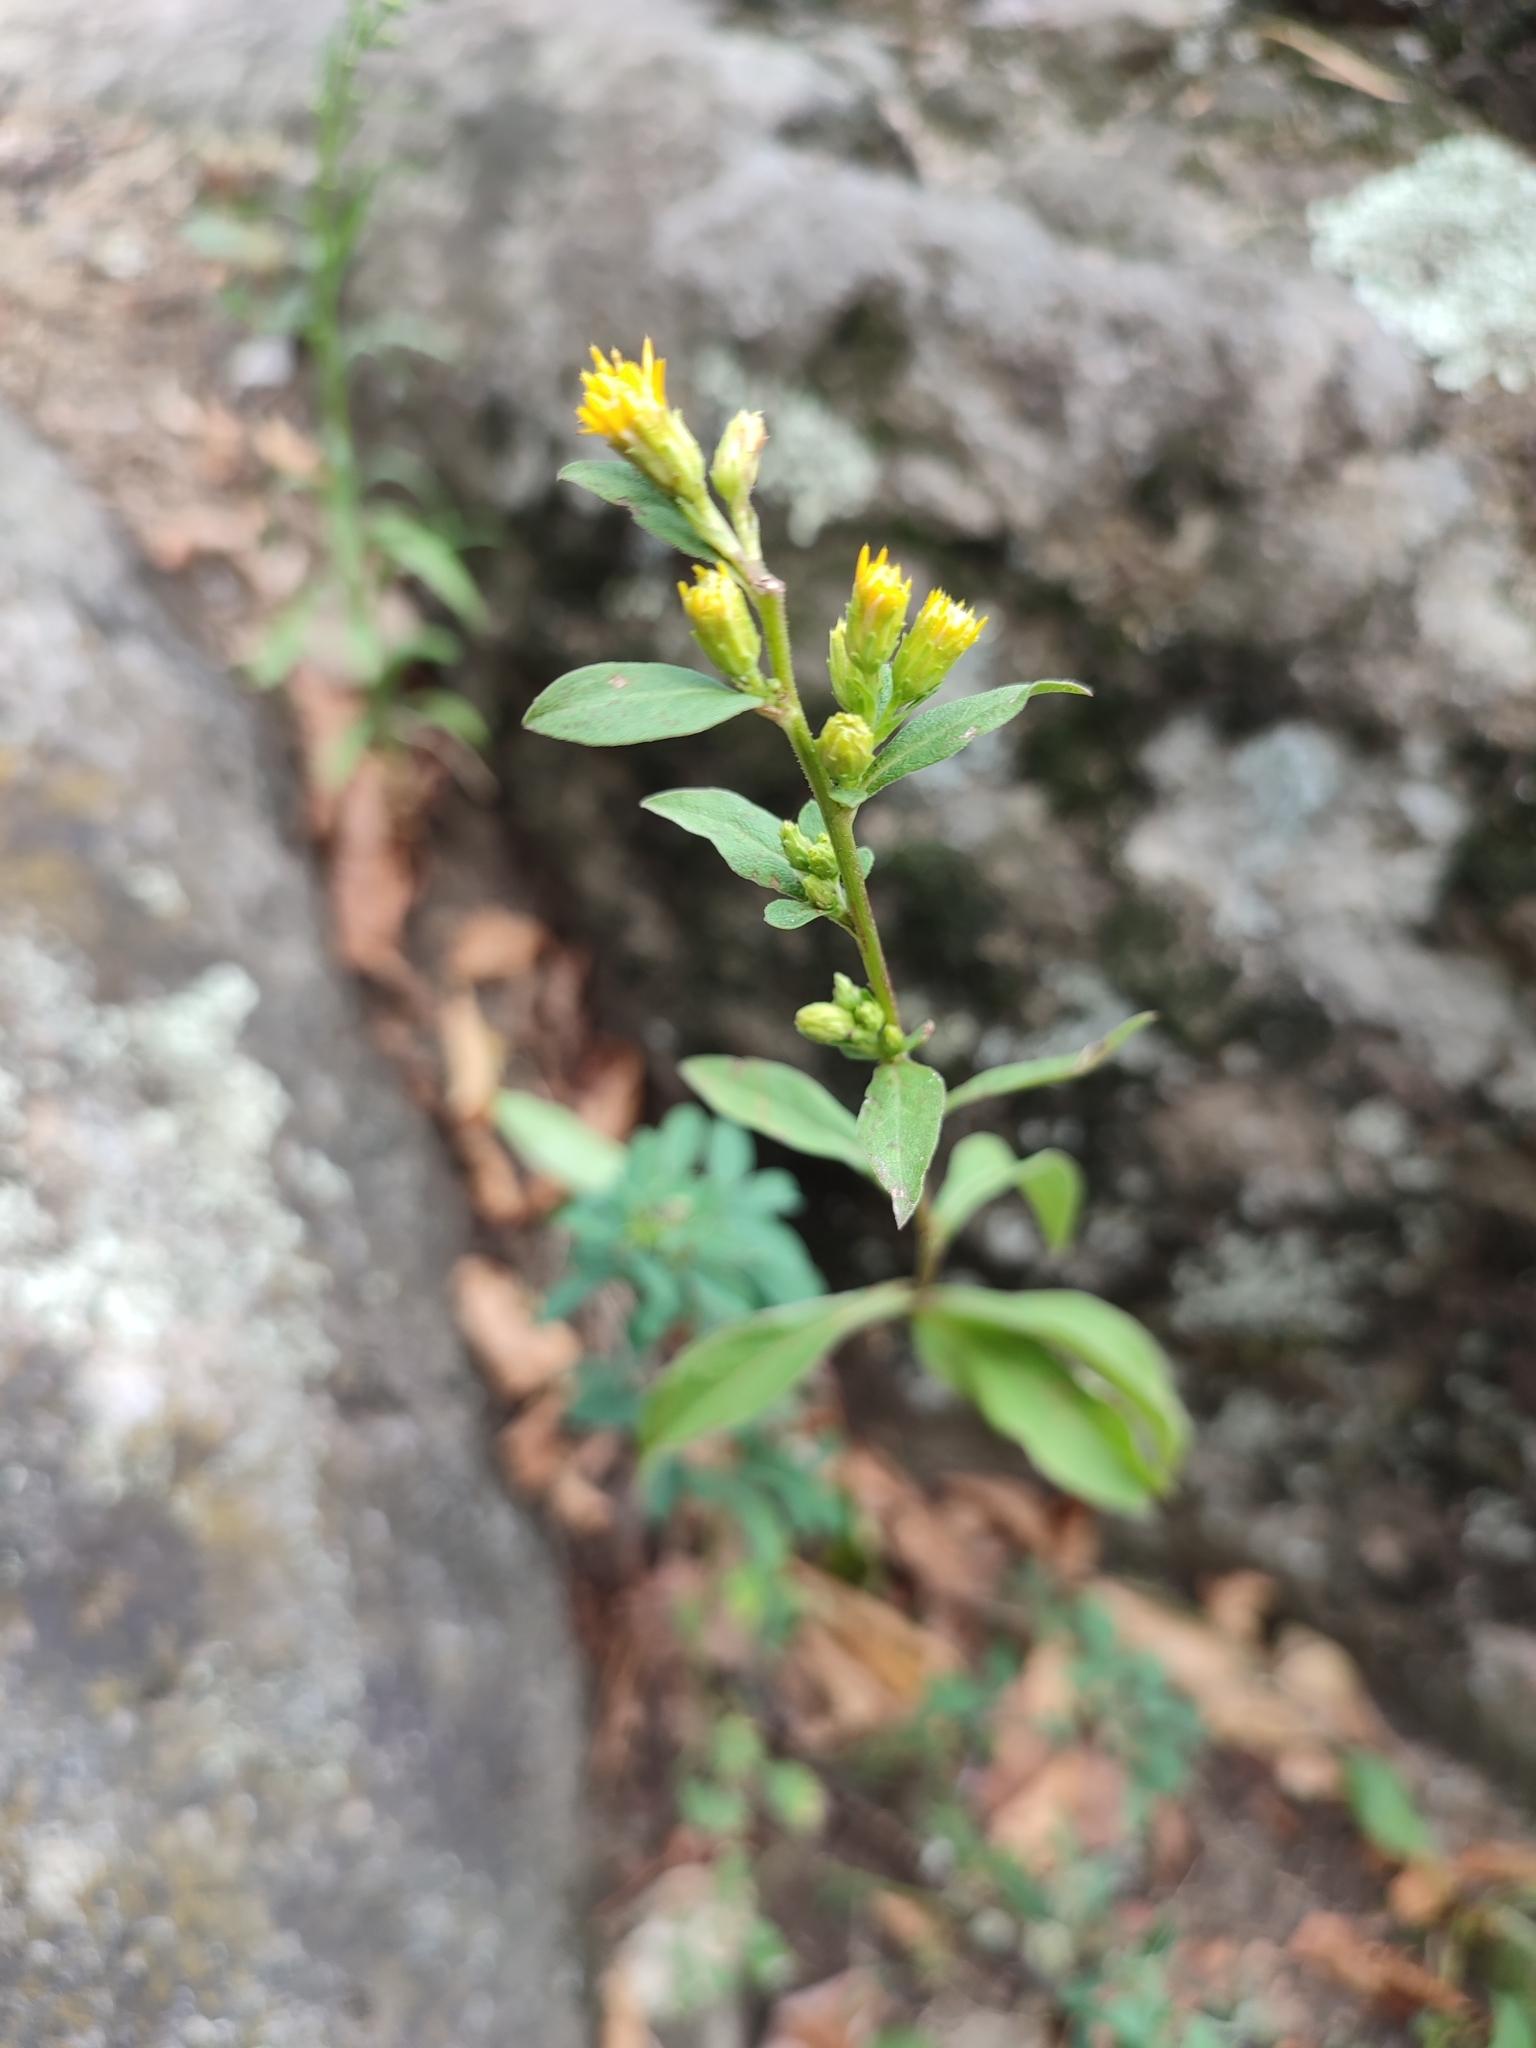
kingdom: Plantae
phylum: Tracheophyta
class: Magnoliopsida
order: Asterales
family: Asteraceae
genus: Solidago
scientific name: Solidago virgaurea
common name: Goldenrod
